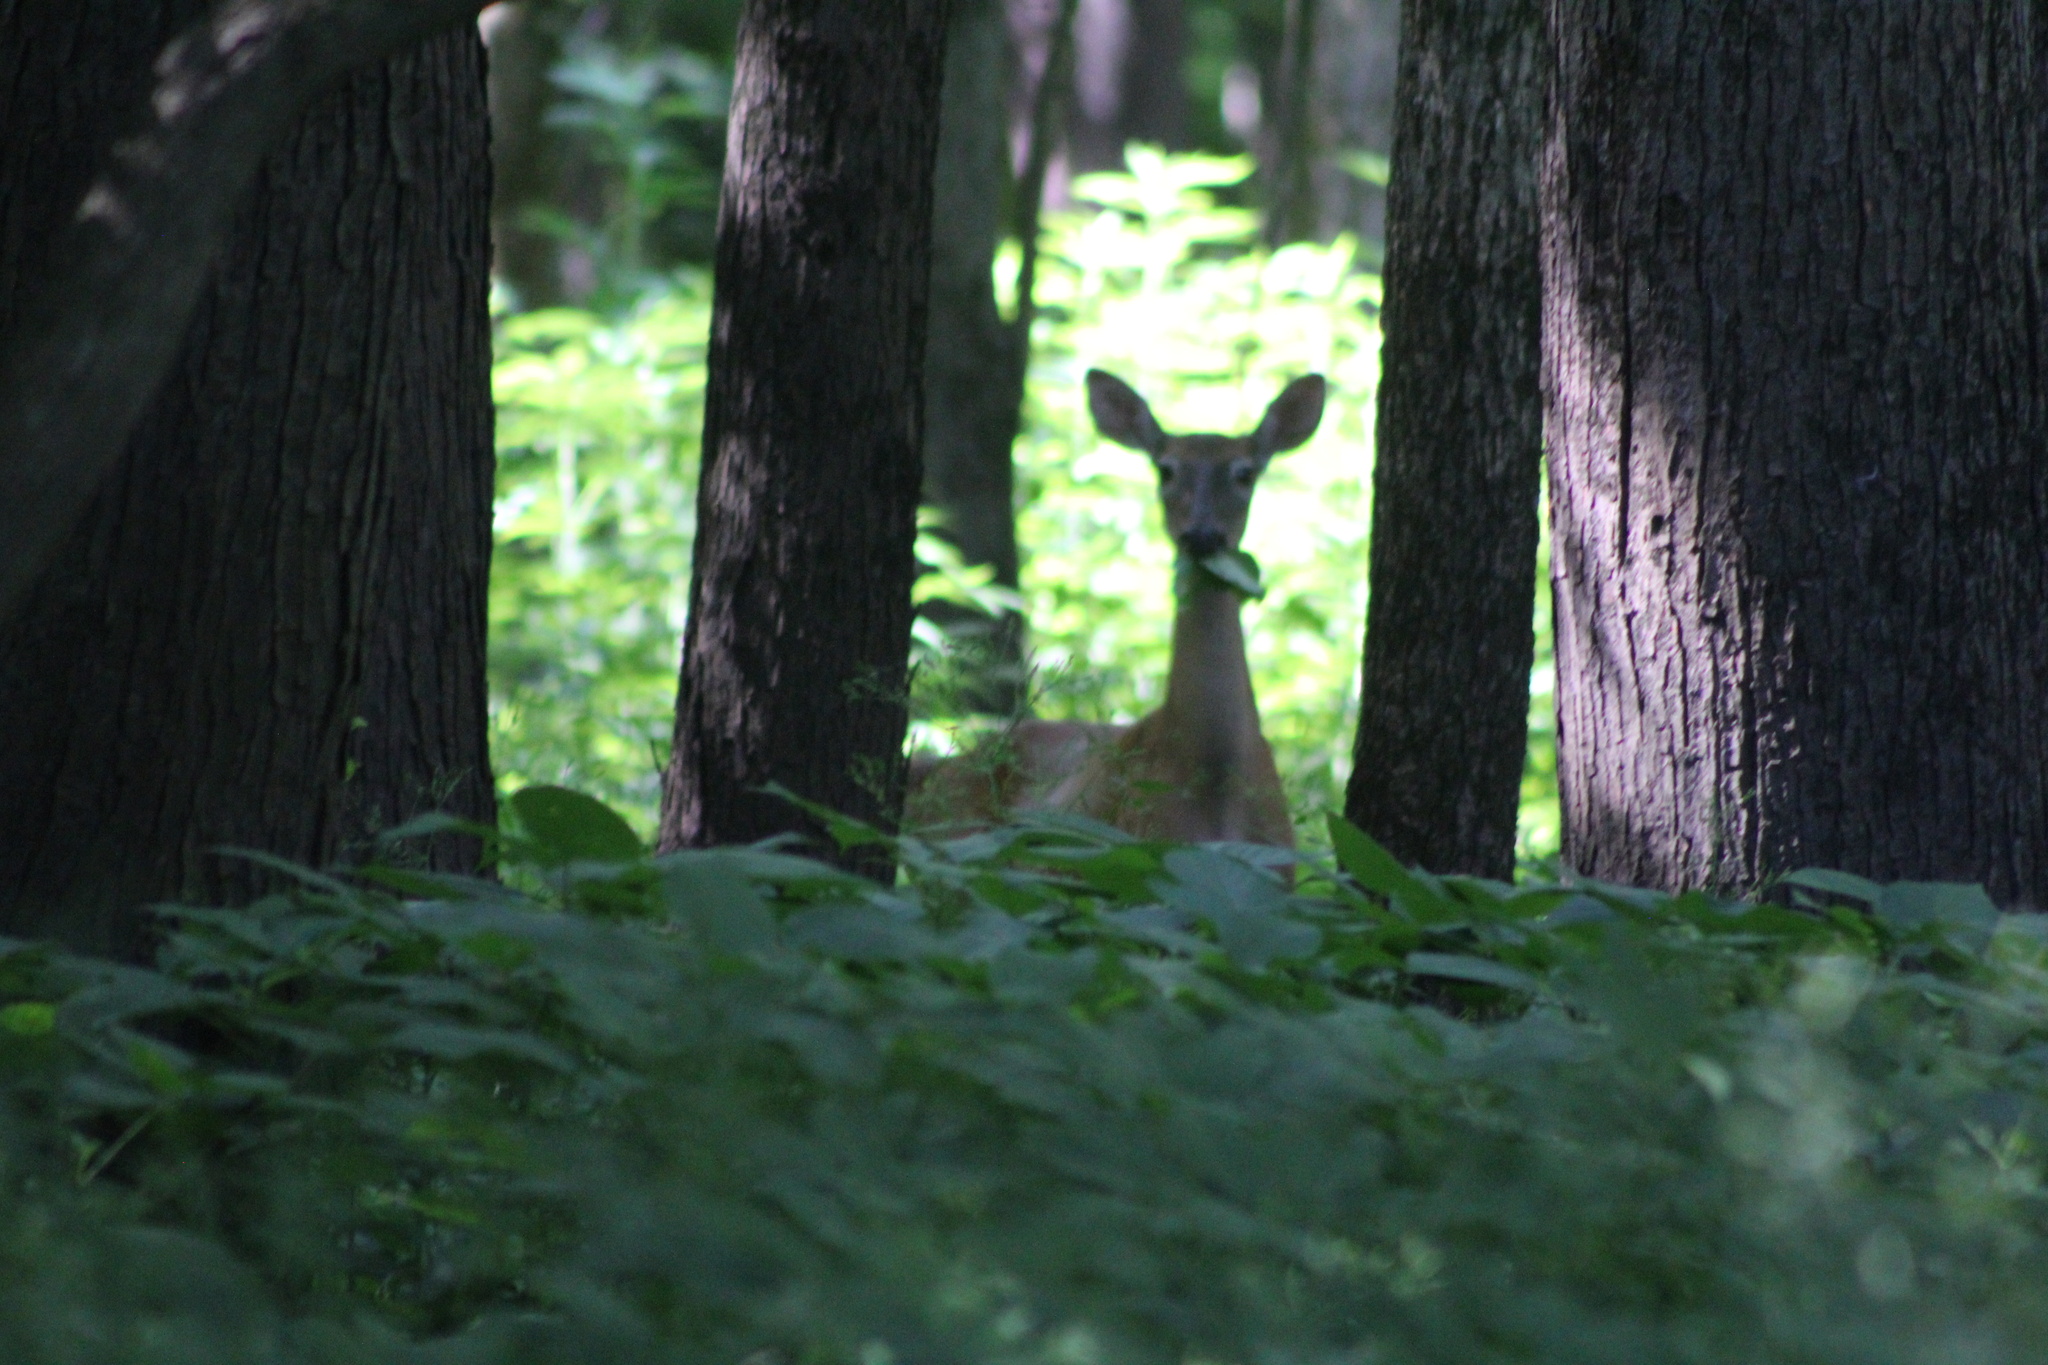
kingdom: Animalia
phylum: Chordata
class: Mammalia
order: Artiodactyla
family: Cervidae
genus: Odocoileus
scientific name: Odocoileus virginianus
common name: White-tailed deer
